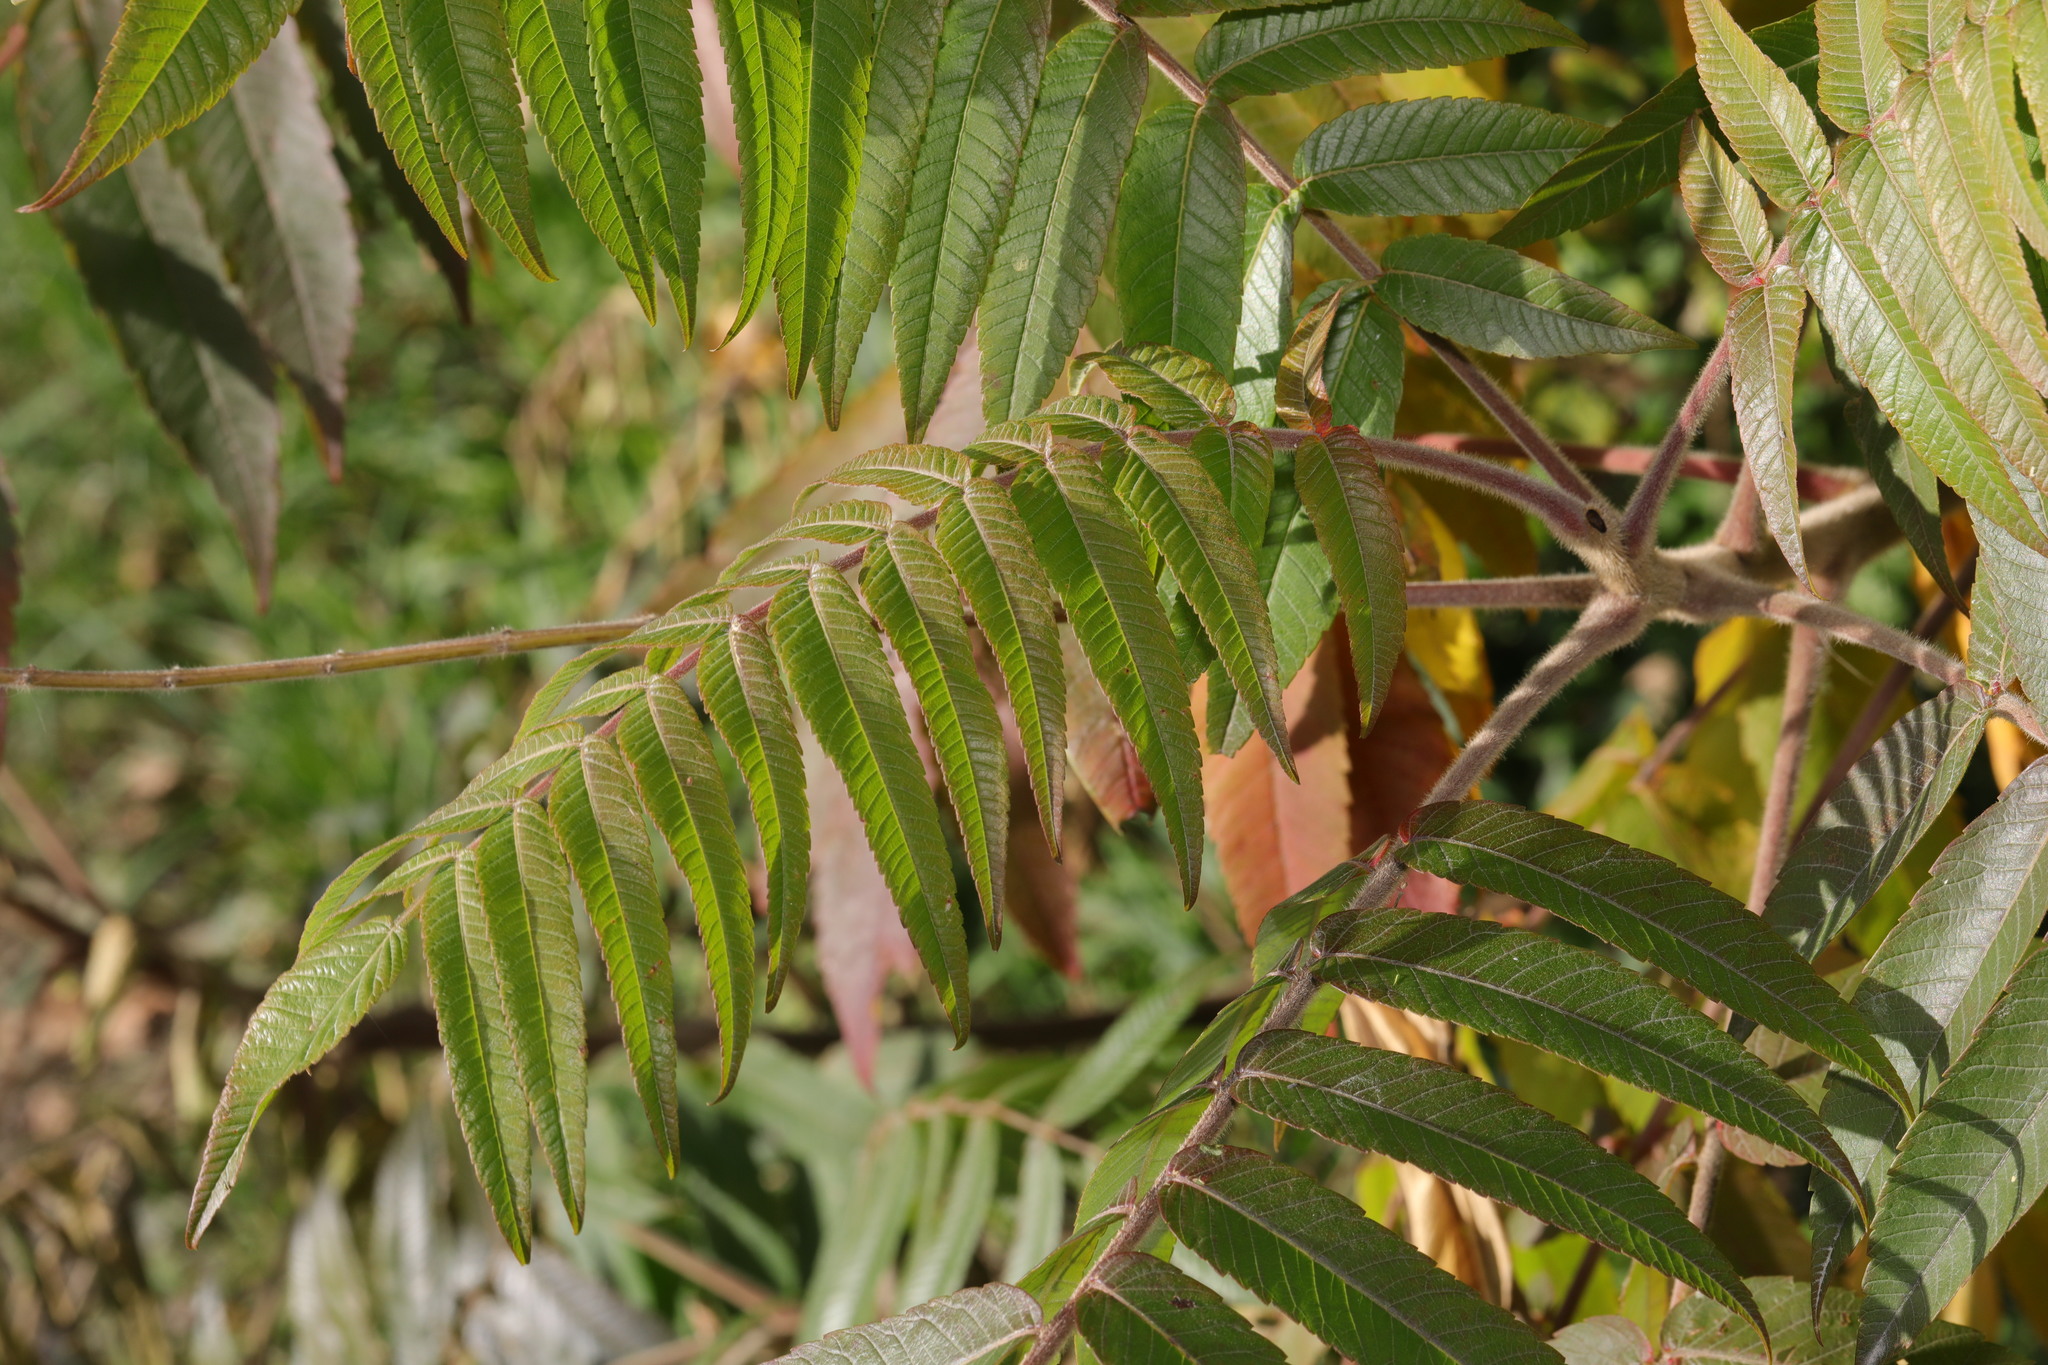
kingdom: Plantae
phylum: Tracheophyta
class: Magnoliopsida
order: Sapindales
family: Anacardiaceae
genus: Rhus
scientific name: Rhus typhina
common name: Staghorn sumac
